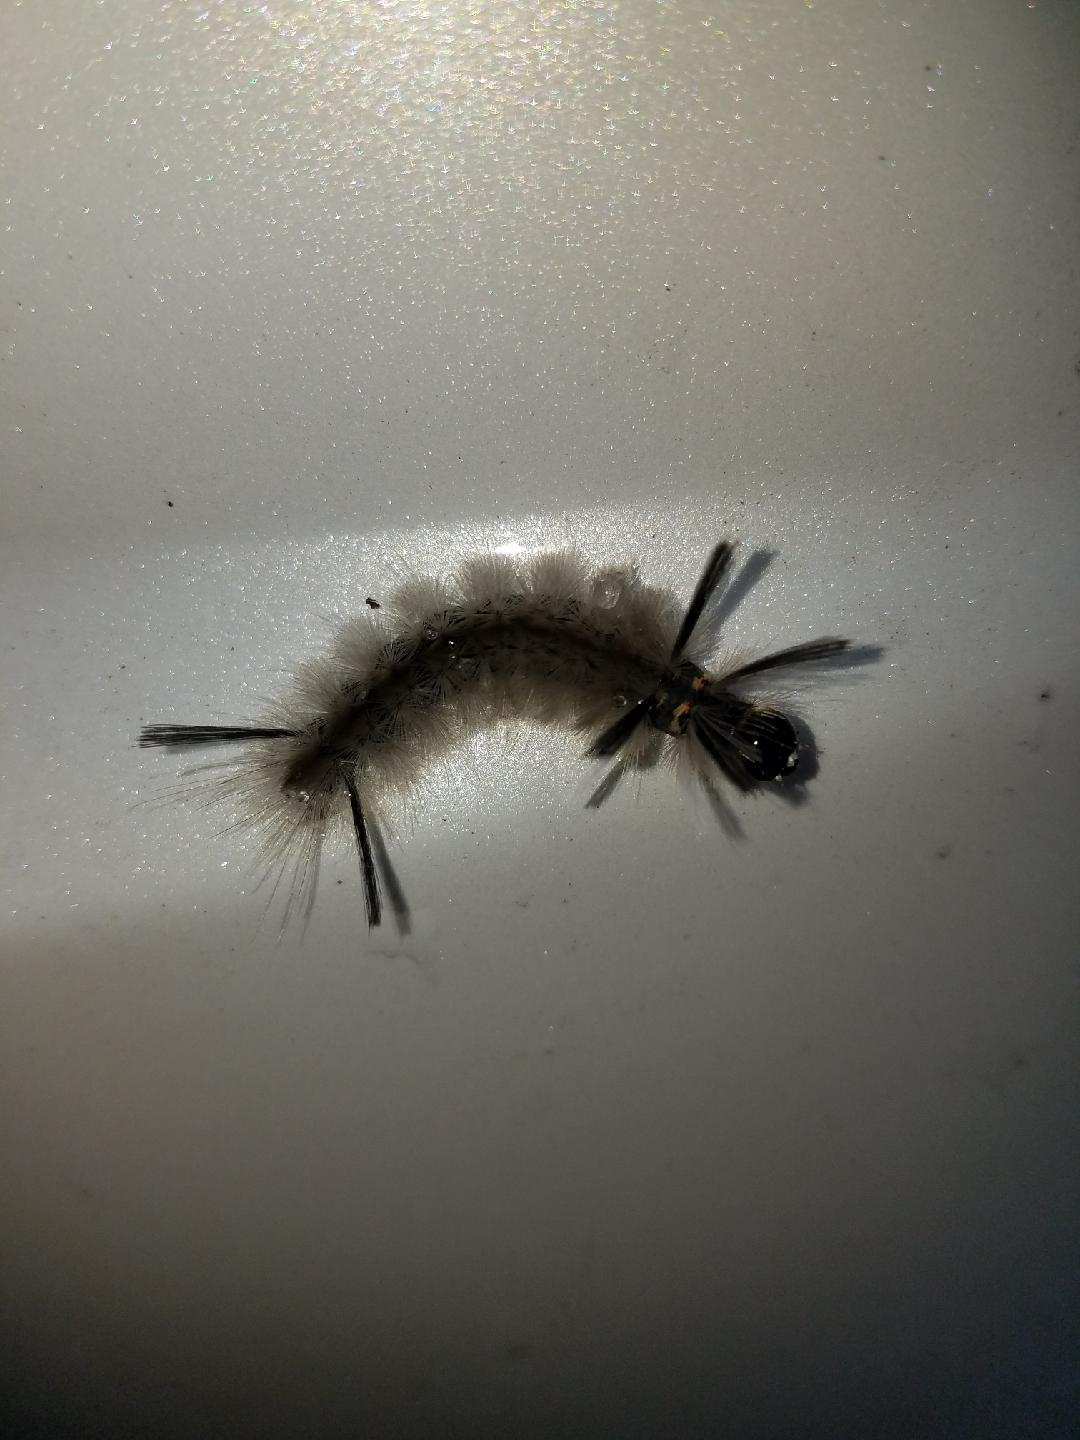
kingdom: Animalia
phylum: Arthropoda
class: Insecta
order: Lepidoptera
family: Erebidae
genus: Halysidota
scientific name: Halysidota tessellaris
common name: Banded tussock moth
